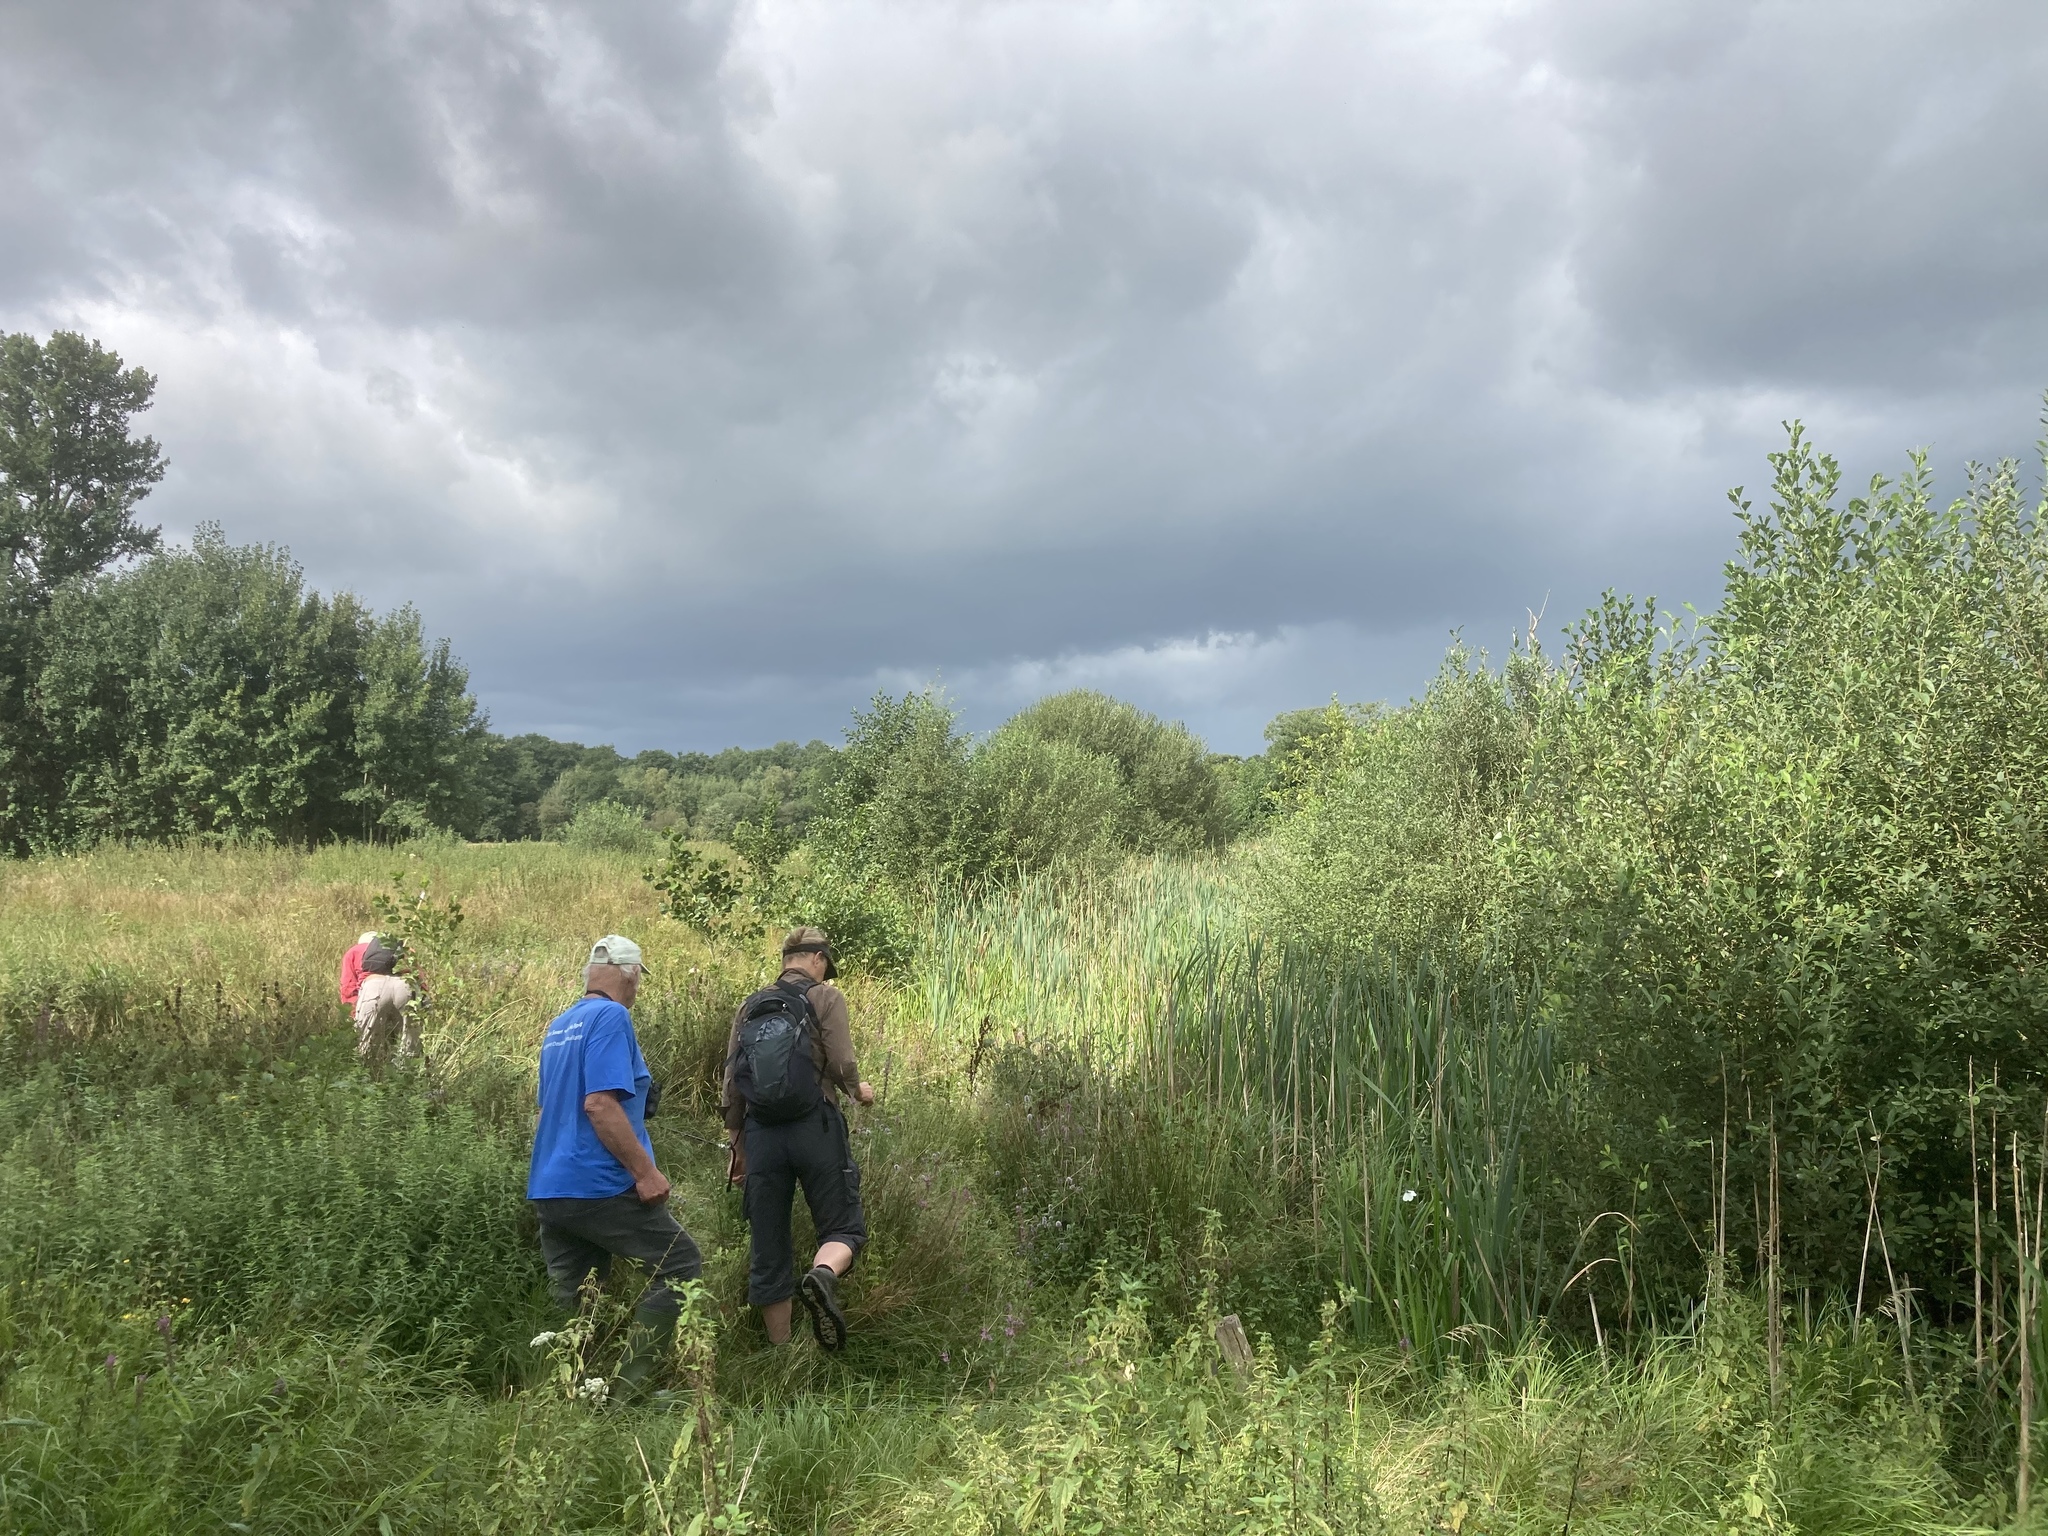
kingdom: Plantae
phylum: Tracheophyta
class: Liliopsida
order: Poales
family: Poaceae
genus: Phragmites
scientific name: Phragmites australis
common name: Common reed
